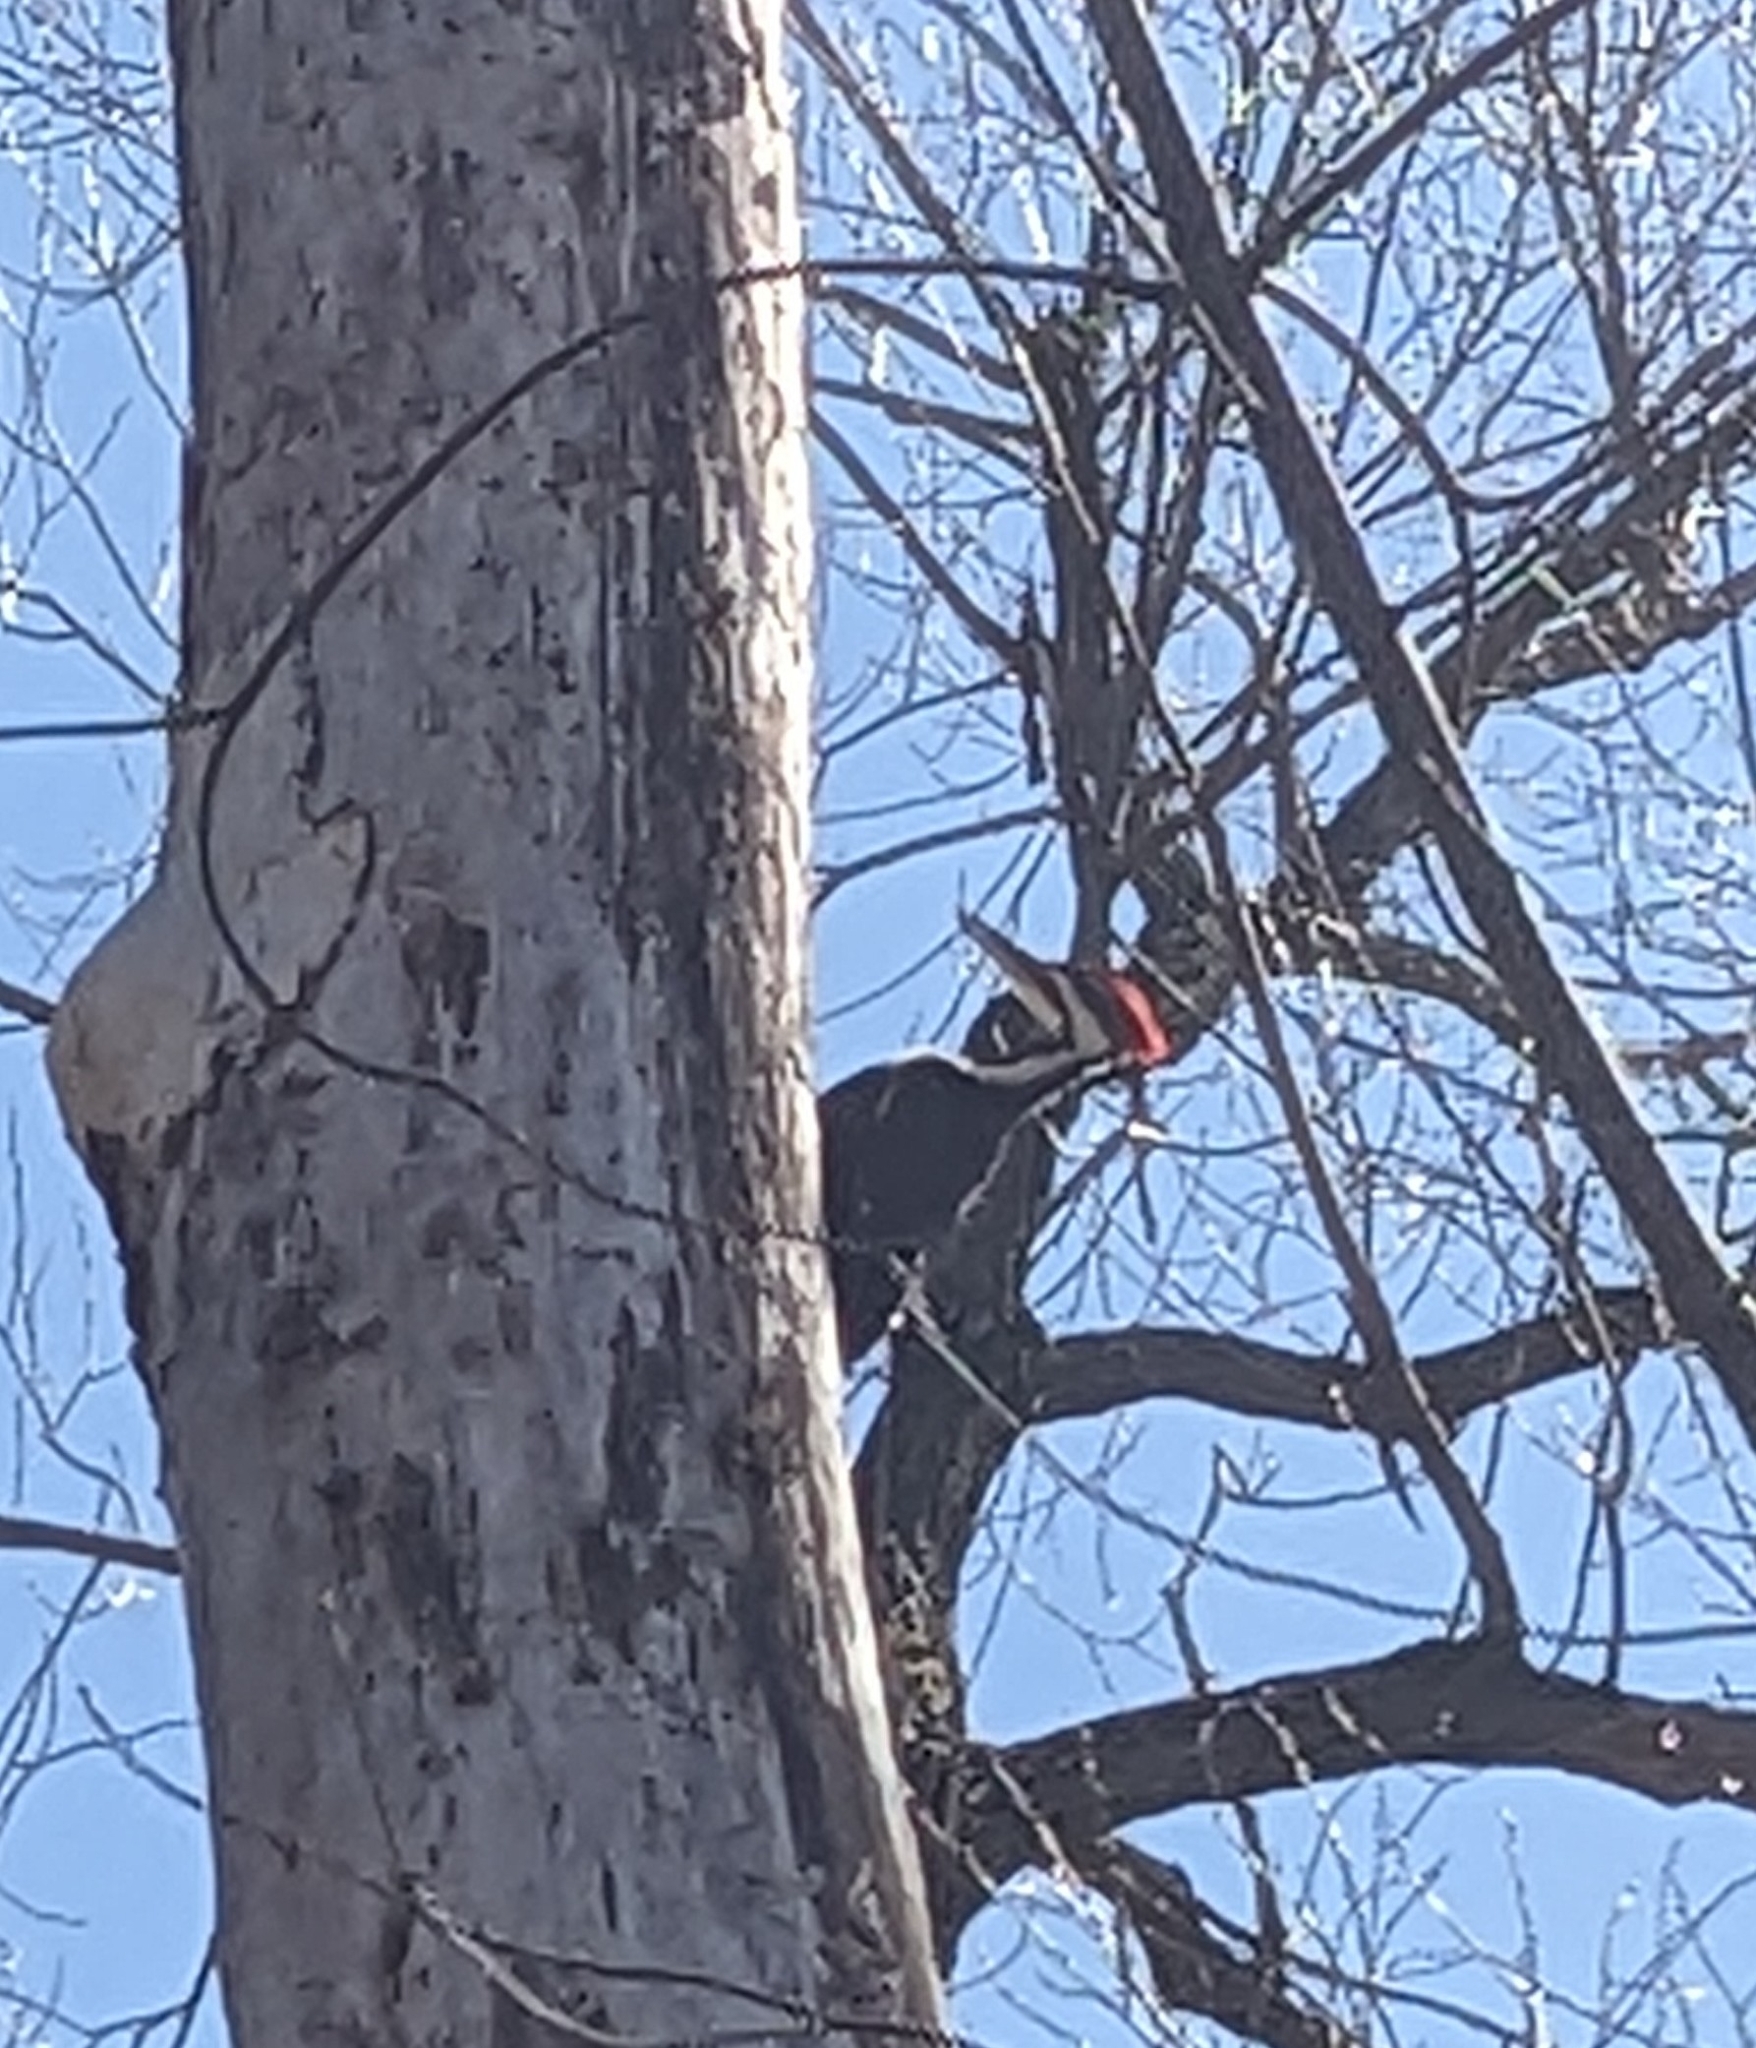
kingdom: Animalia
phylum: Chordata
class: Aves
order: Piciformes
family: Picidae
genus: Dryocopus
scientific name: Dryocopus pileatus
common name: Pileated woodpecker
